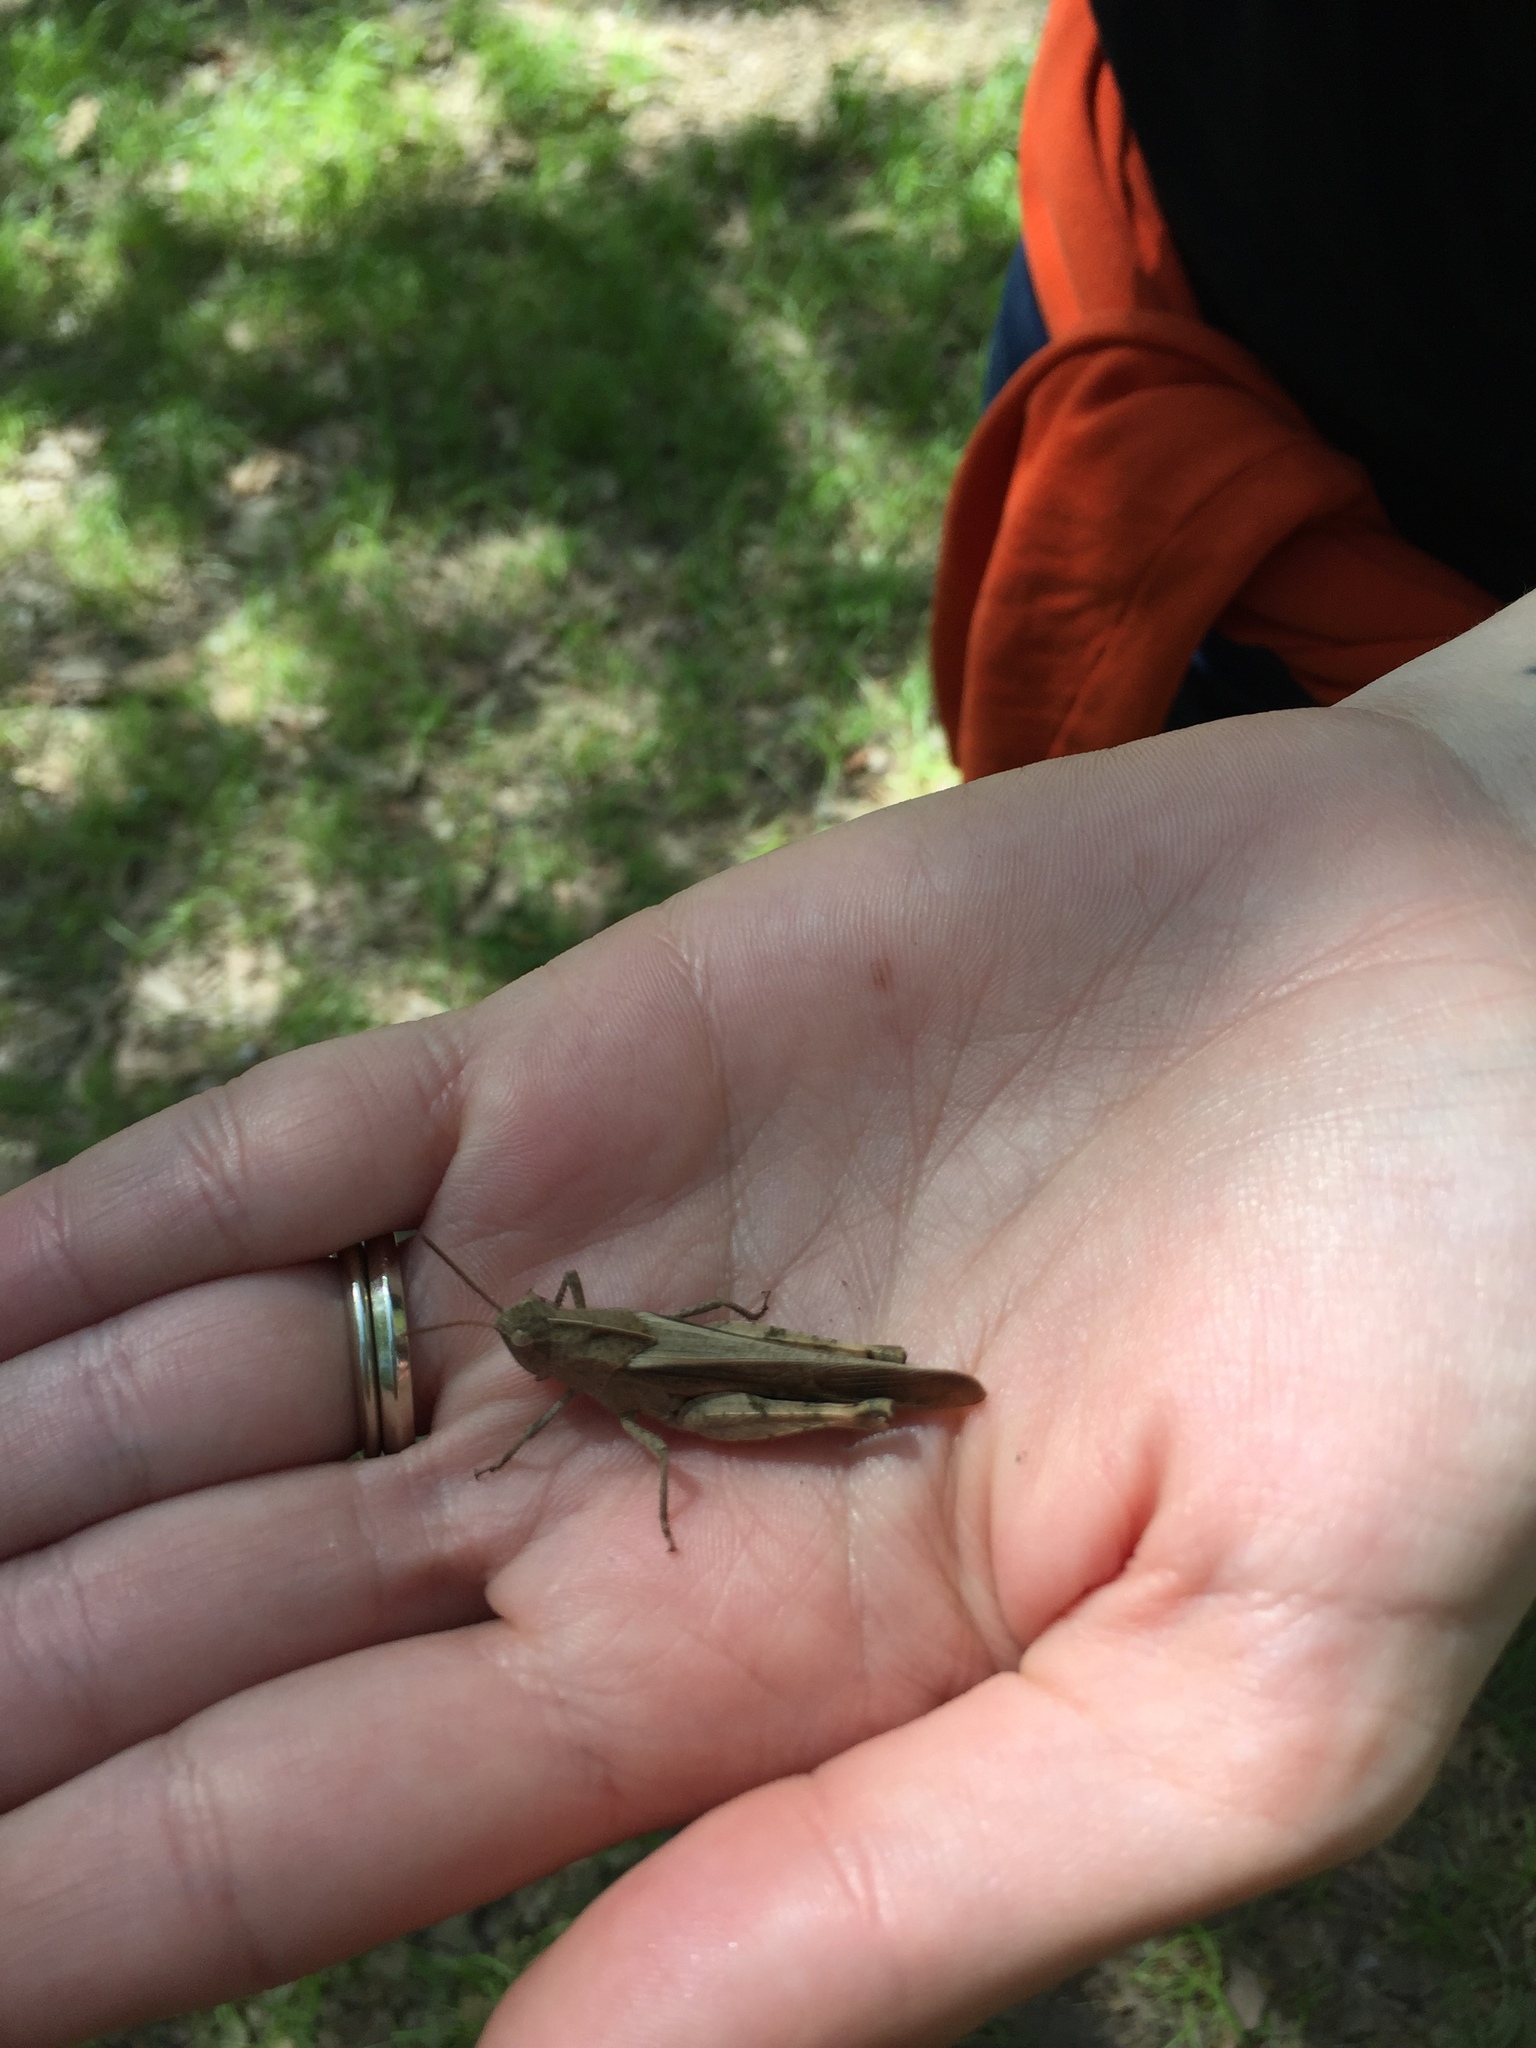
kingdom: Animalia
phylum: Arthropoda
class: Insecta
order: Orthoptera
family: Acrididae
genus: Chortophaga
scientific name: Chortophaga viridifasciata
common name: Green-striped grasshopper
